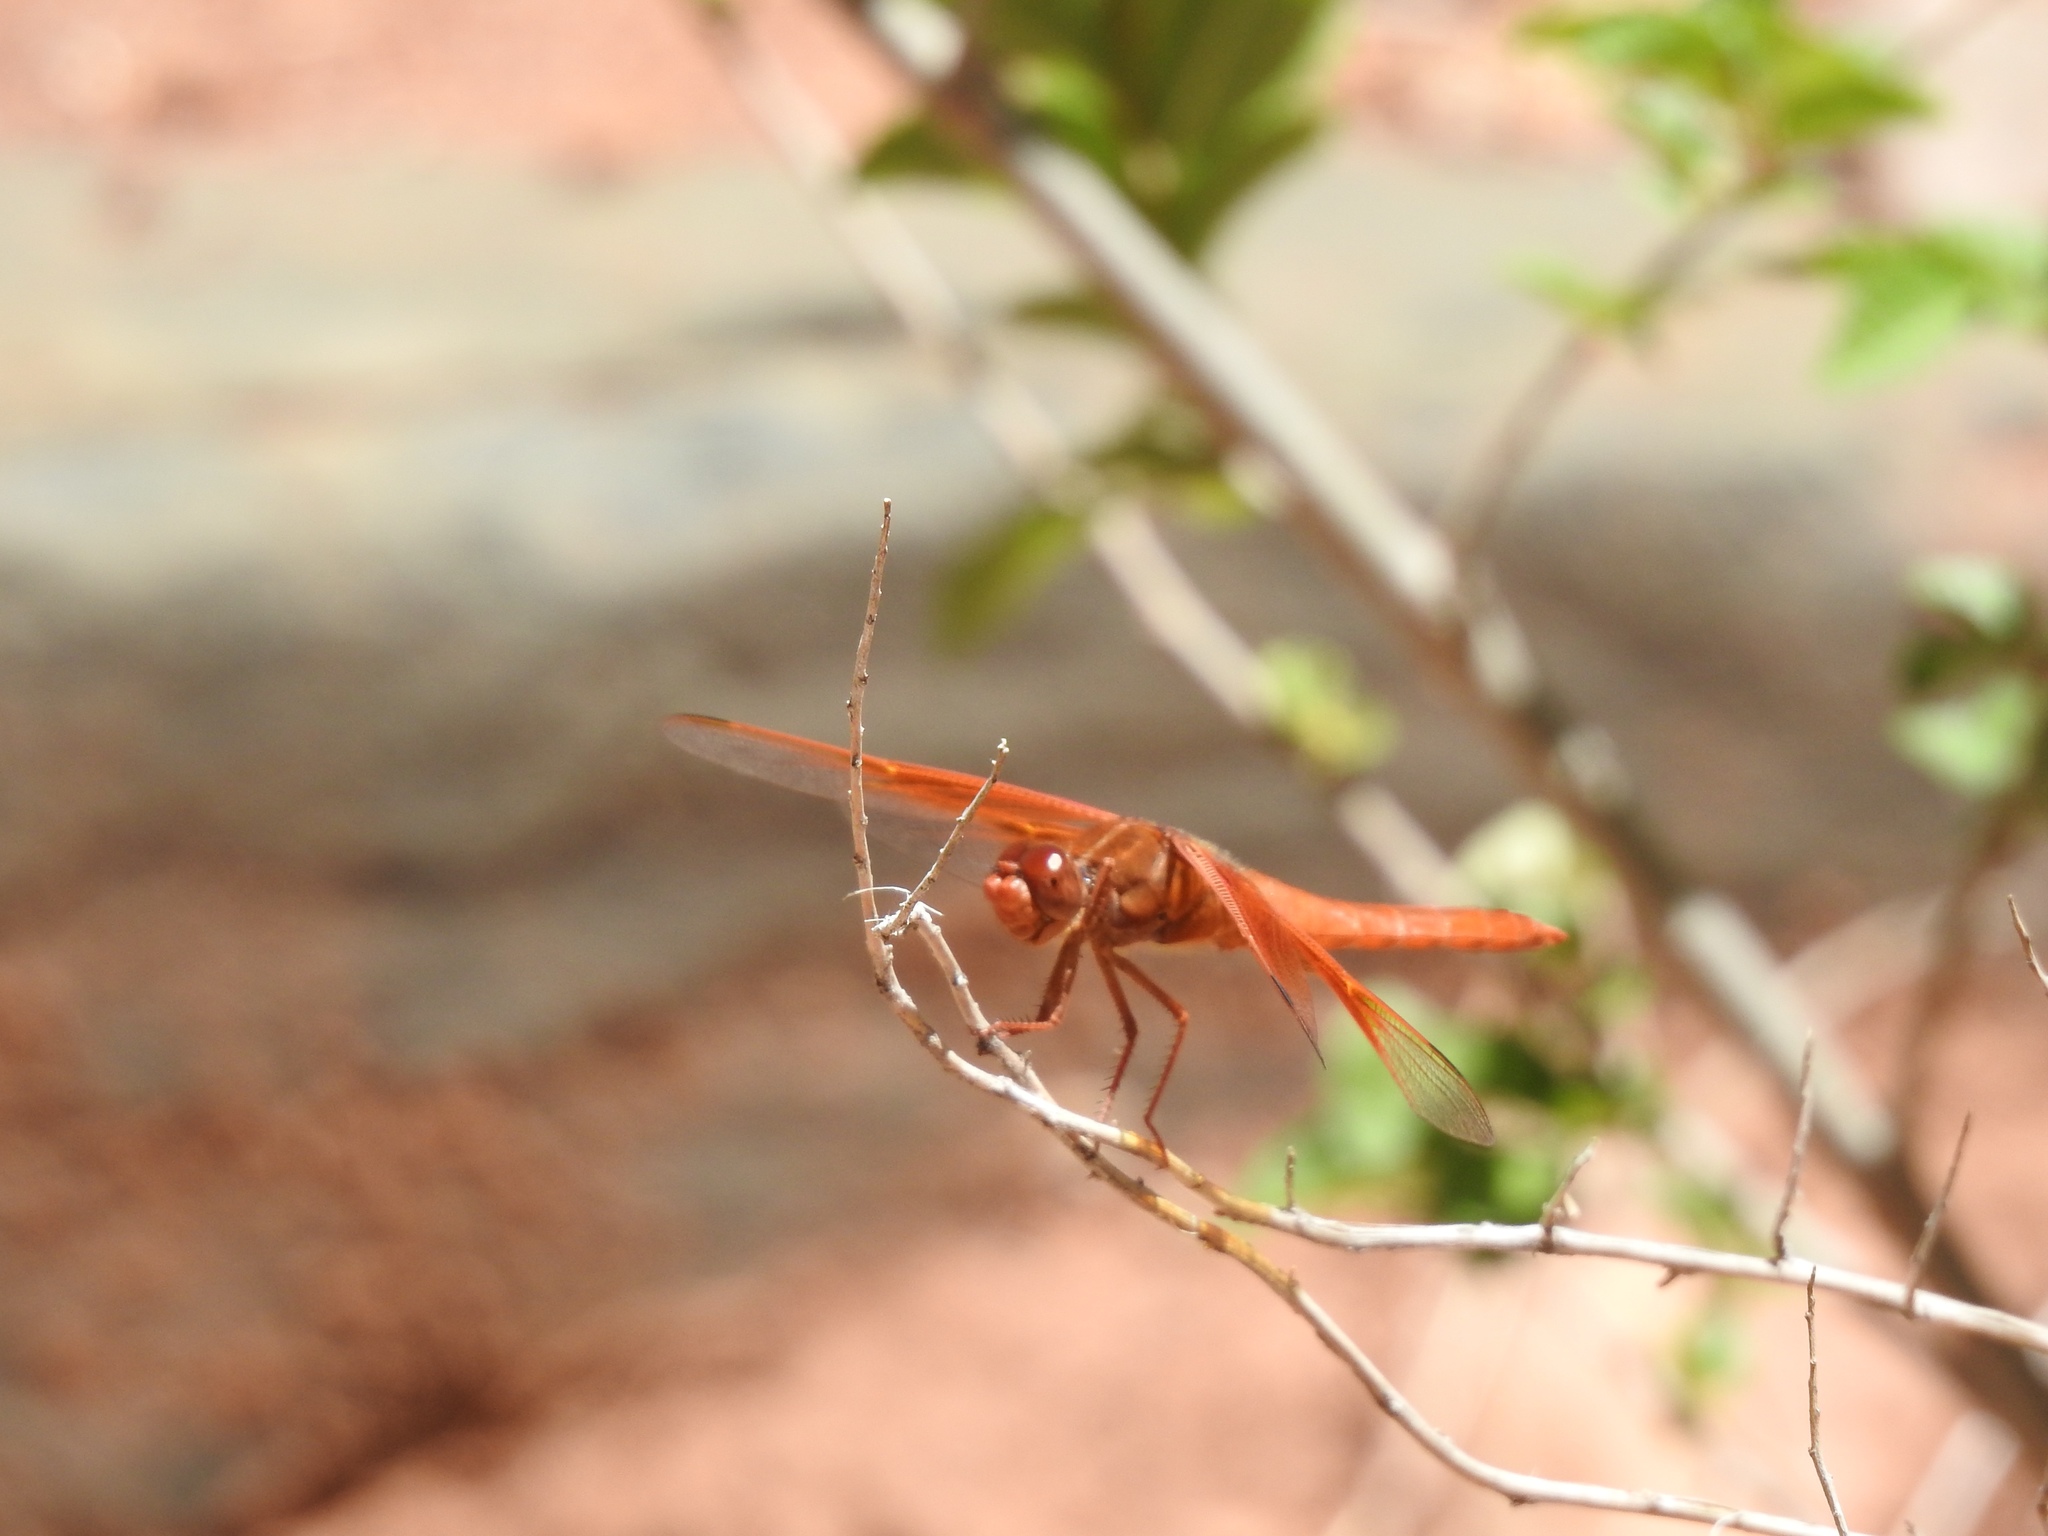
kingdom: Animalia
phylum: Arthropoda
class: Insecta
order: Odonata
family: Libellulidae
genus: Libellula
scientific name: Libellula saturata
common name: Flame skimmer
